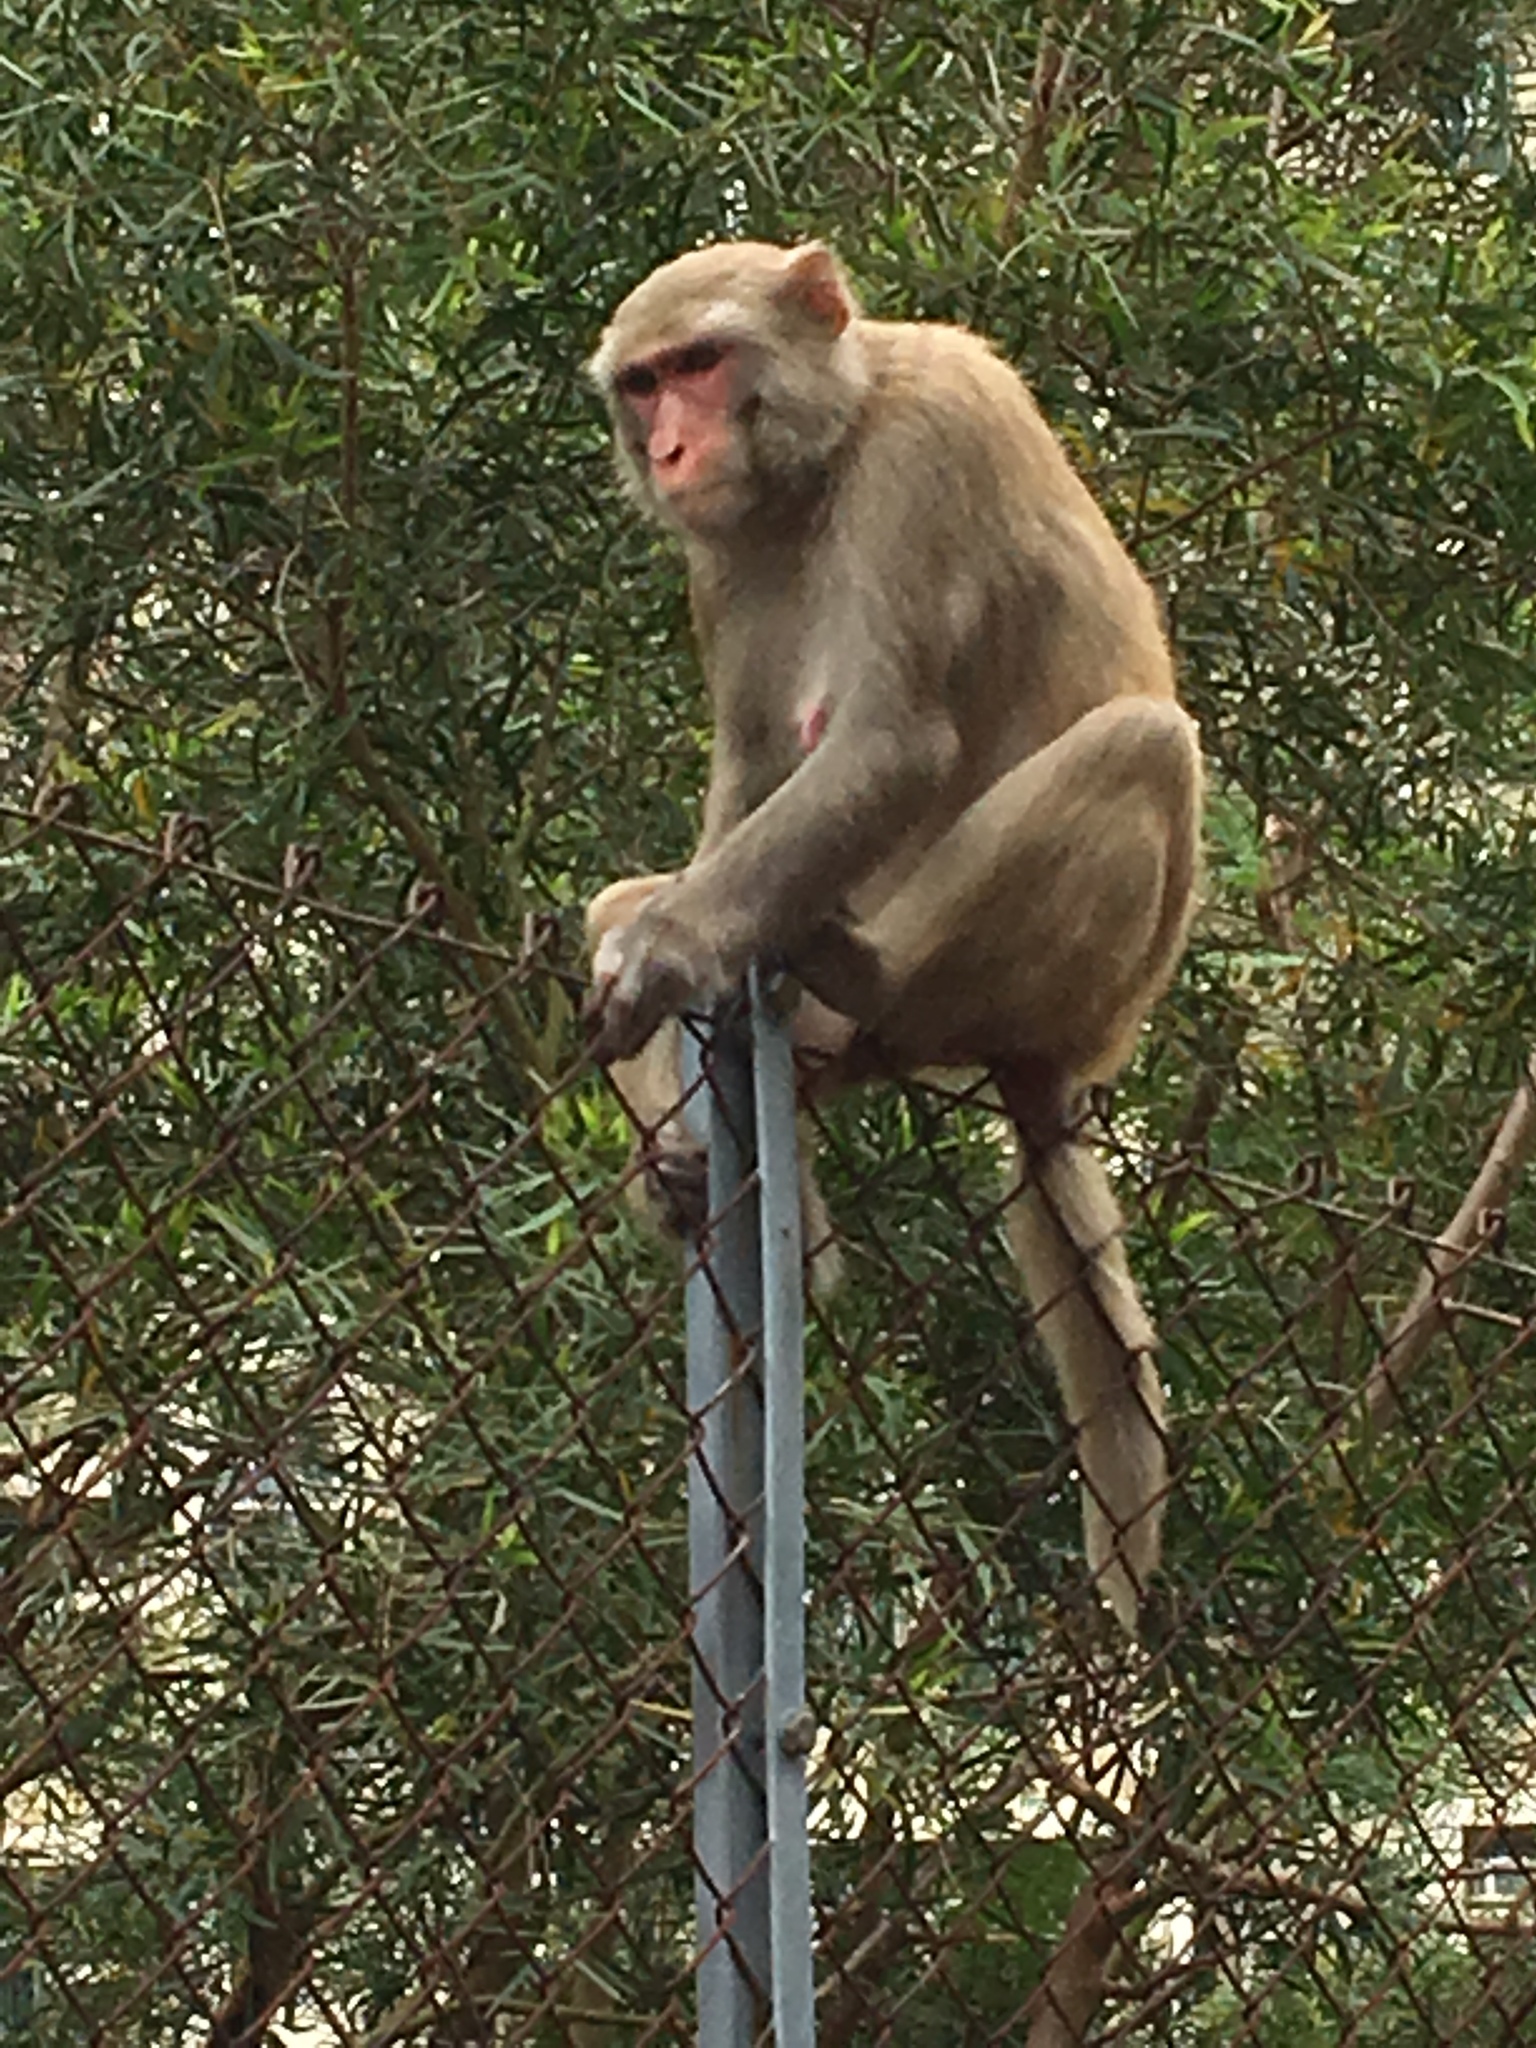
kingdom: Animalia
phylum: Chordata
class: Mammalia
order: Primates
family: Cercopithecidae
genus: Macaca
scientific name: Macaca mulatta
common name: Rhesus monkey
